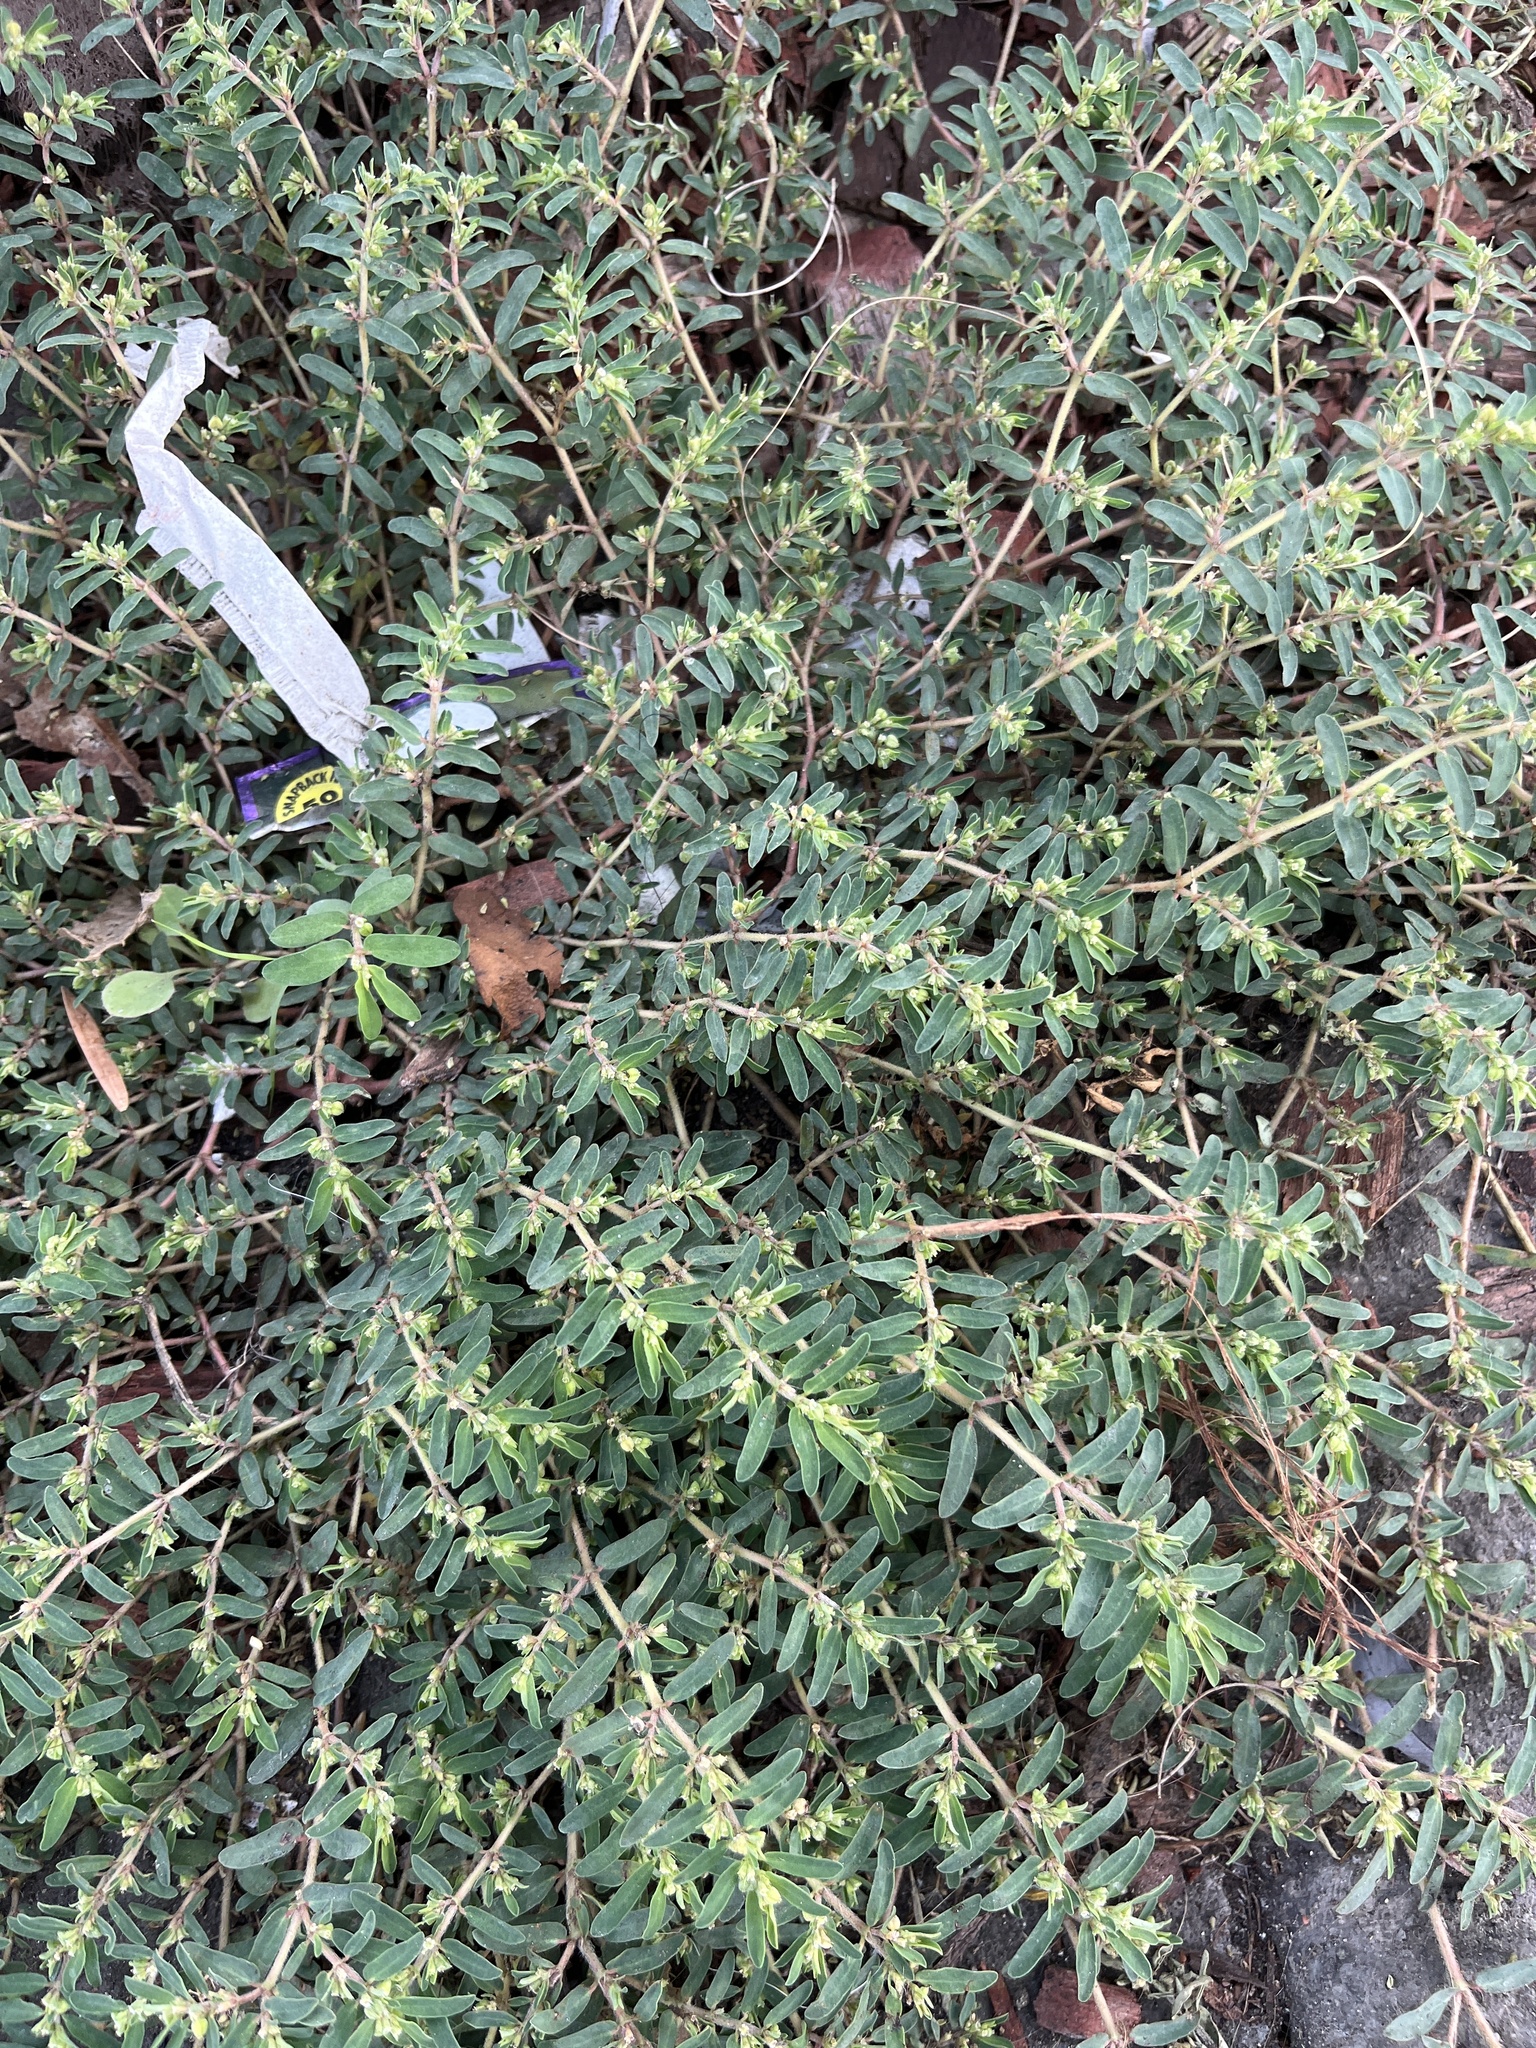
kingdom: Plantae
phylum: Tracheophyta
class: Magnoliopsida
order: Malpighiales
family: Euphorbiaceae
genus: Euphorbia
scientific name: Euphorbia maculata
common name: Spotted spurge
